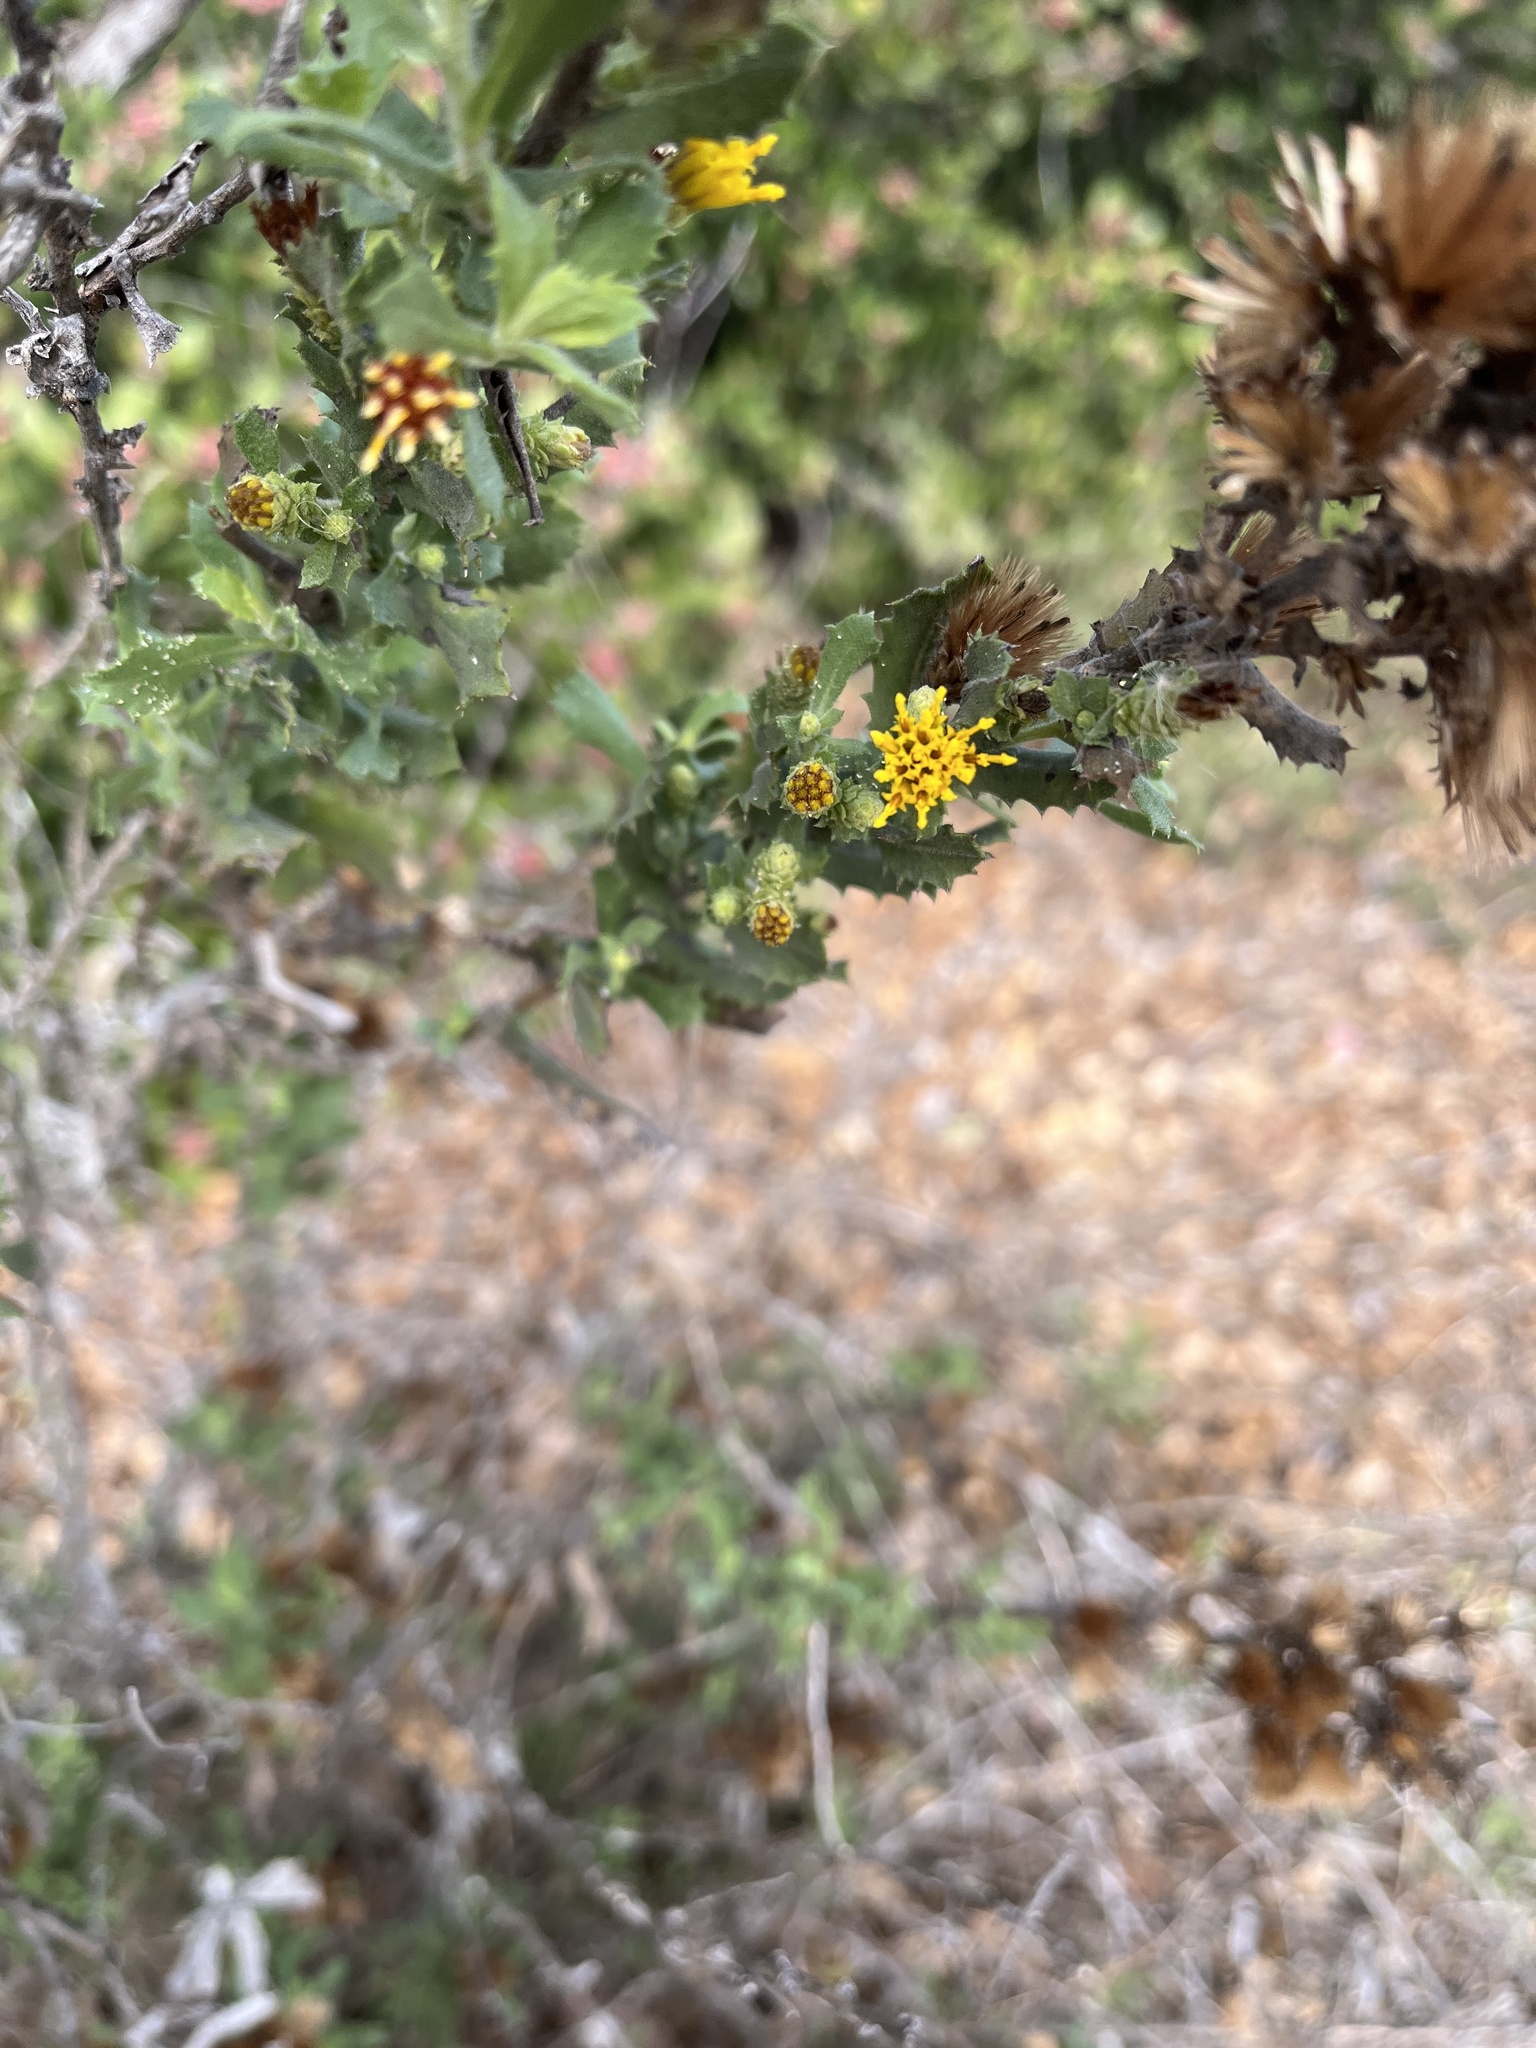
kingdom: Plantae
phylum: Tracheophyta
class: Magnoliopsida
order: Asterales
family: Asteraceae
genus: Hazardia
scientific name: Hazardia squarrosa
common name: Saw-tooth goldenbush
